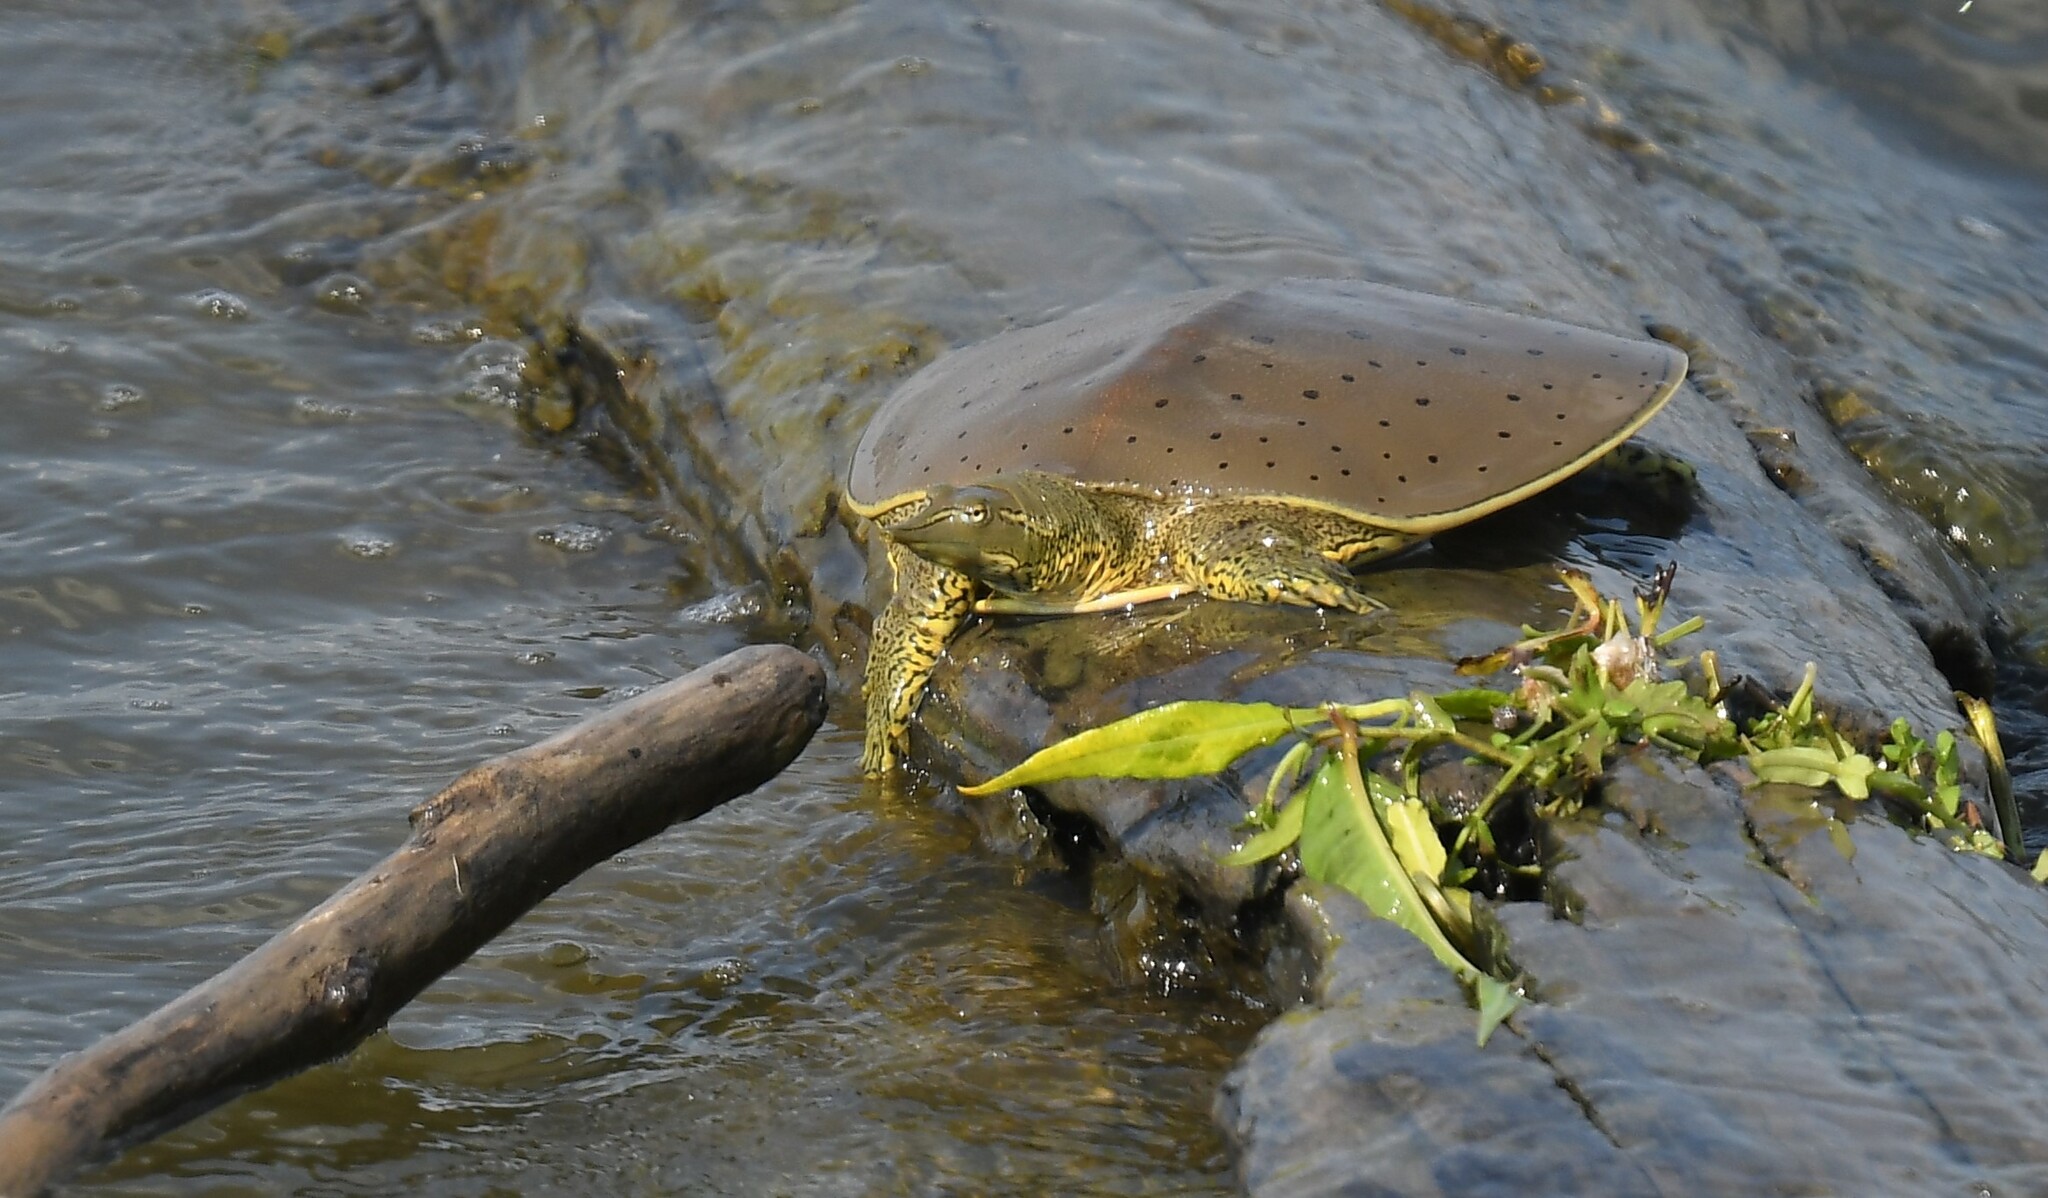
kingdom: Animalia
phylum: Chordata
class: Testudines
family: Trionychidae
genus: Apalone
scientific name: Apalone spinifera
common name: Spiny softshell turtle
